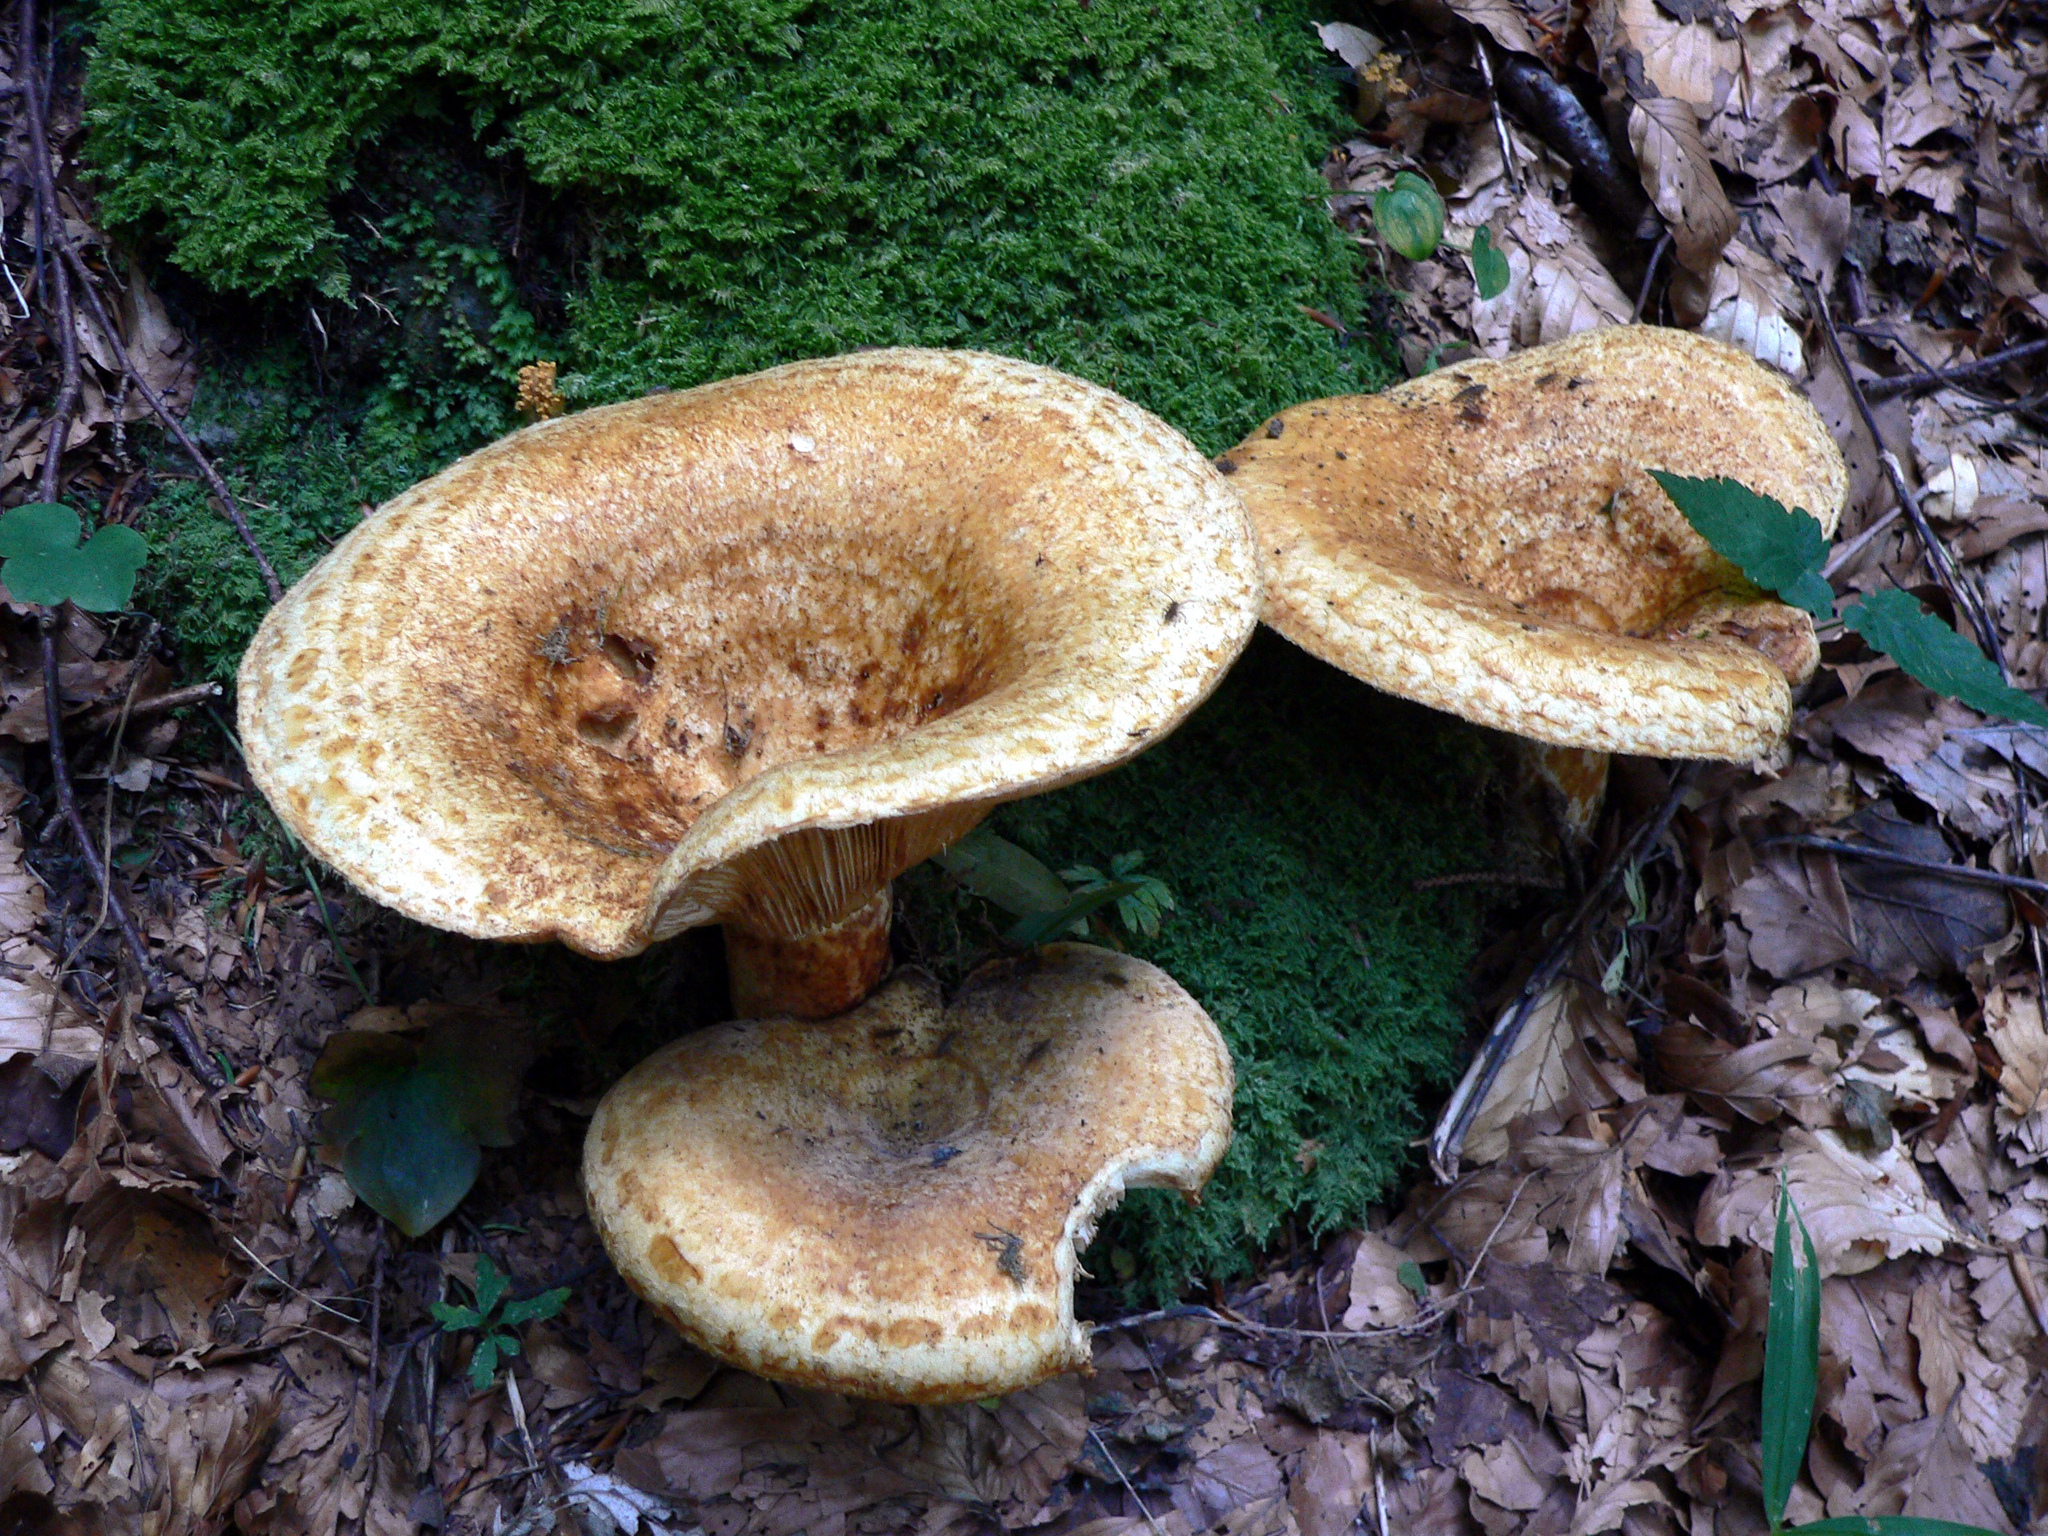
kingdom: Fungi
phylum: Basidiomycota
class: Agaricomycetes
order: Russulales
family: Russulaceae
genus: Lactarius
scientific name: Lactarius scrobiculatus
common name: Spotted milkcap
